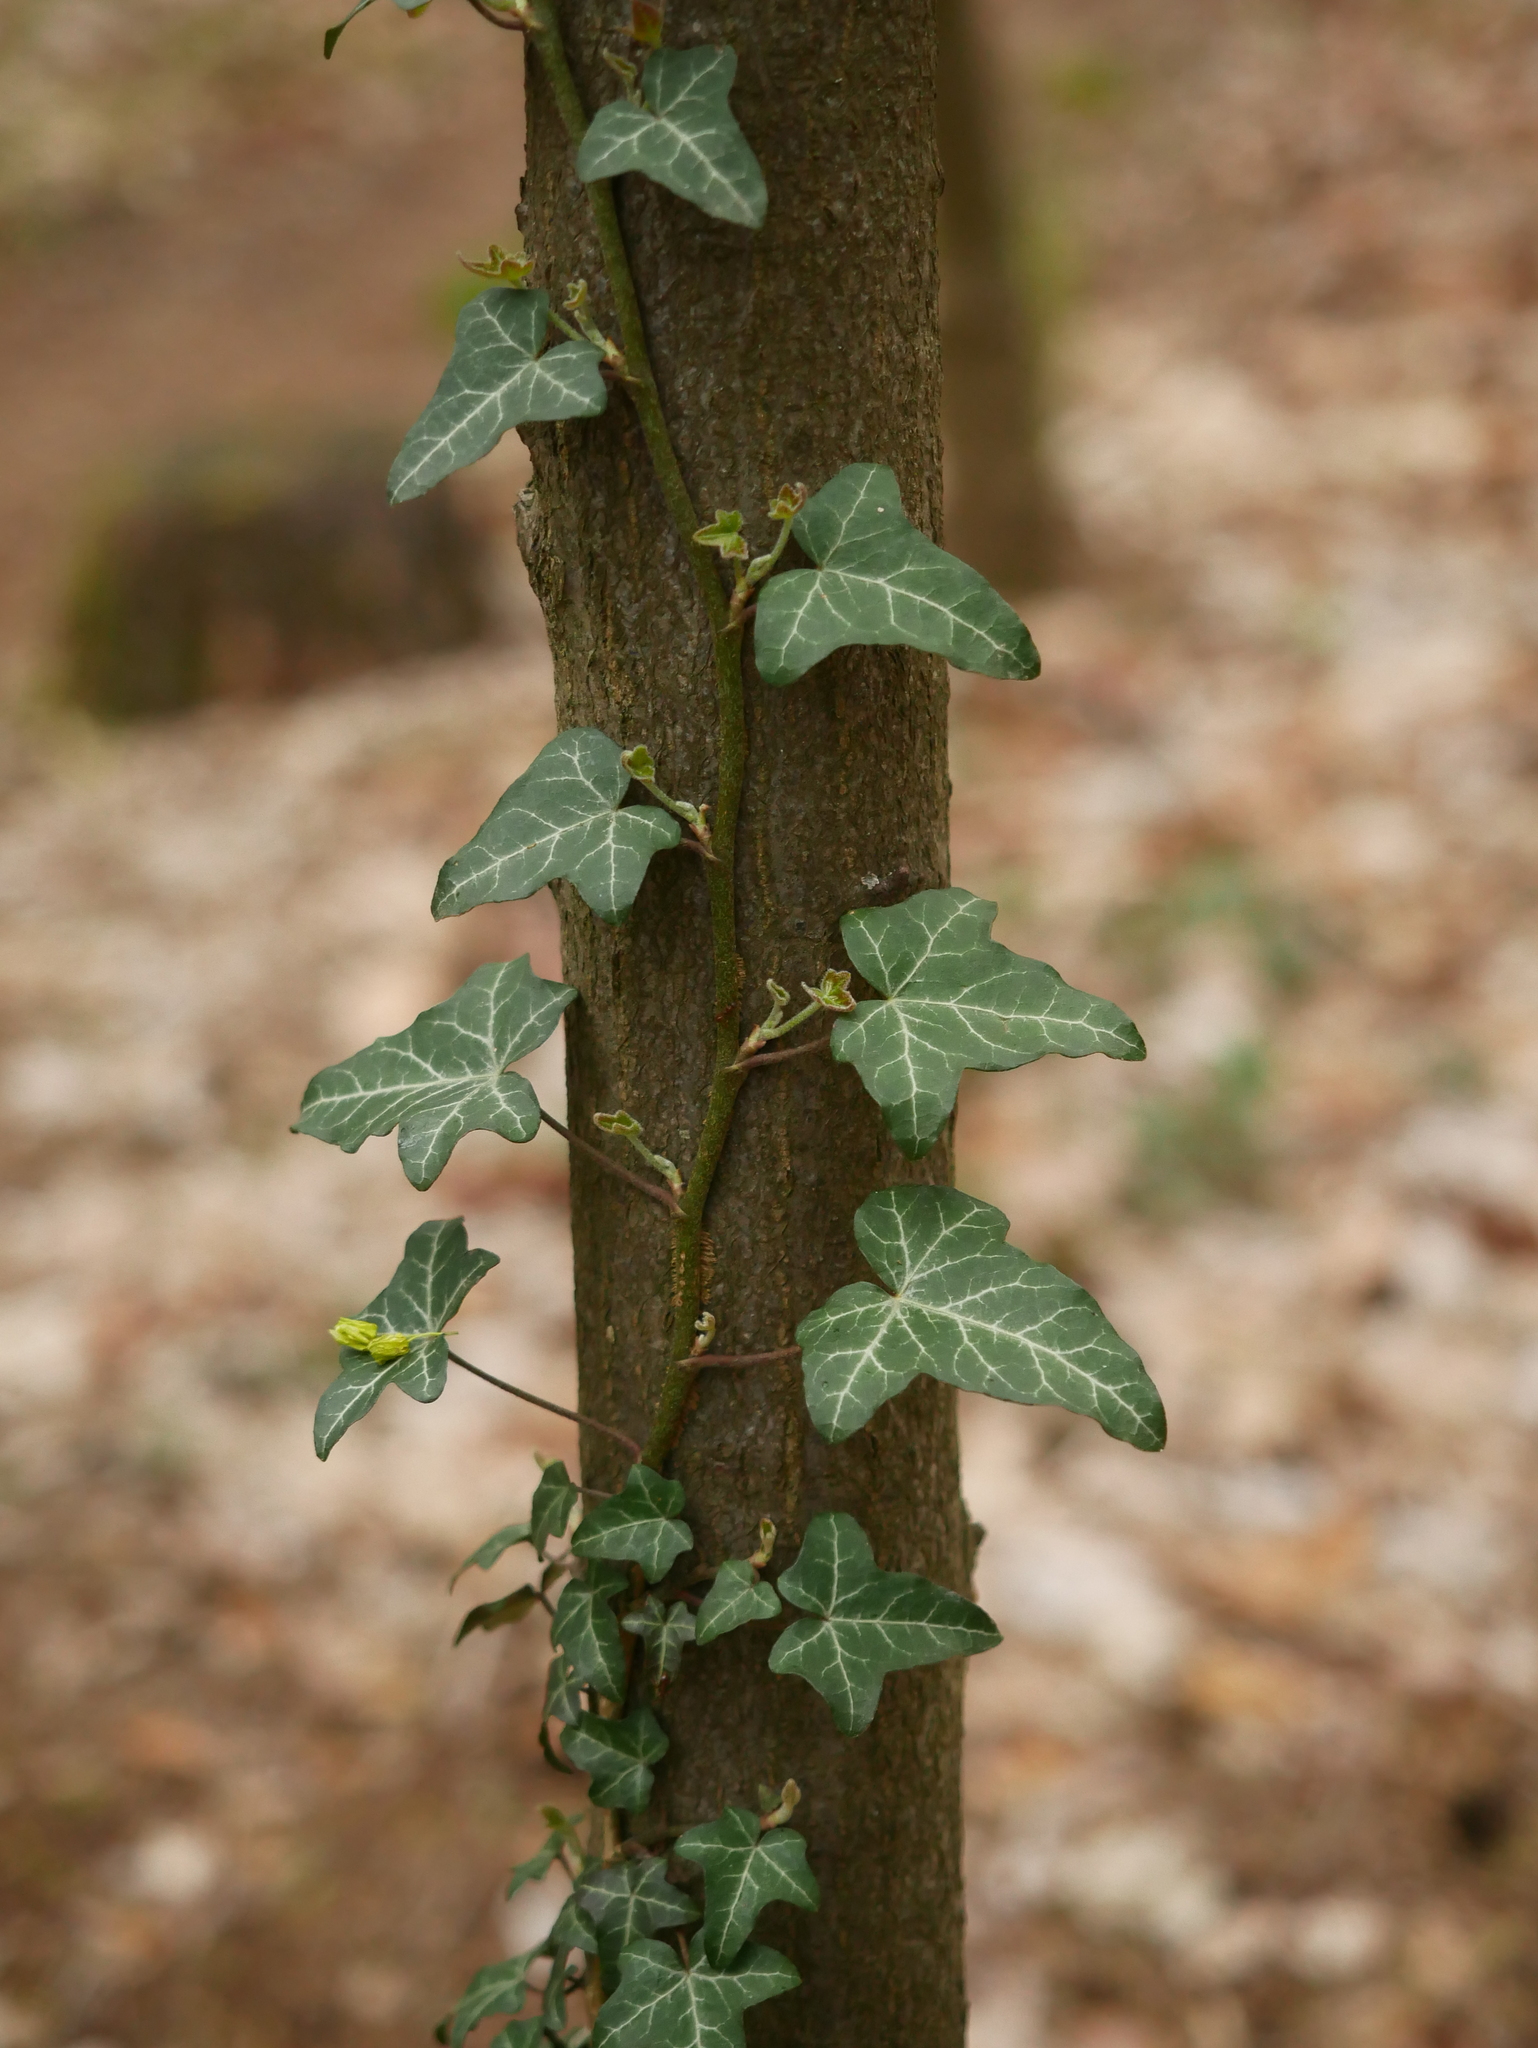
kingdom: Plantae
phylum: Tracheophyta
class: Magnoliopsida
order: Apiales
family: Araliaceae
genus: Hedera
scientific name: Hedera helix
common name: Ivy
